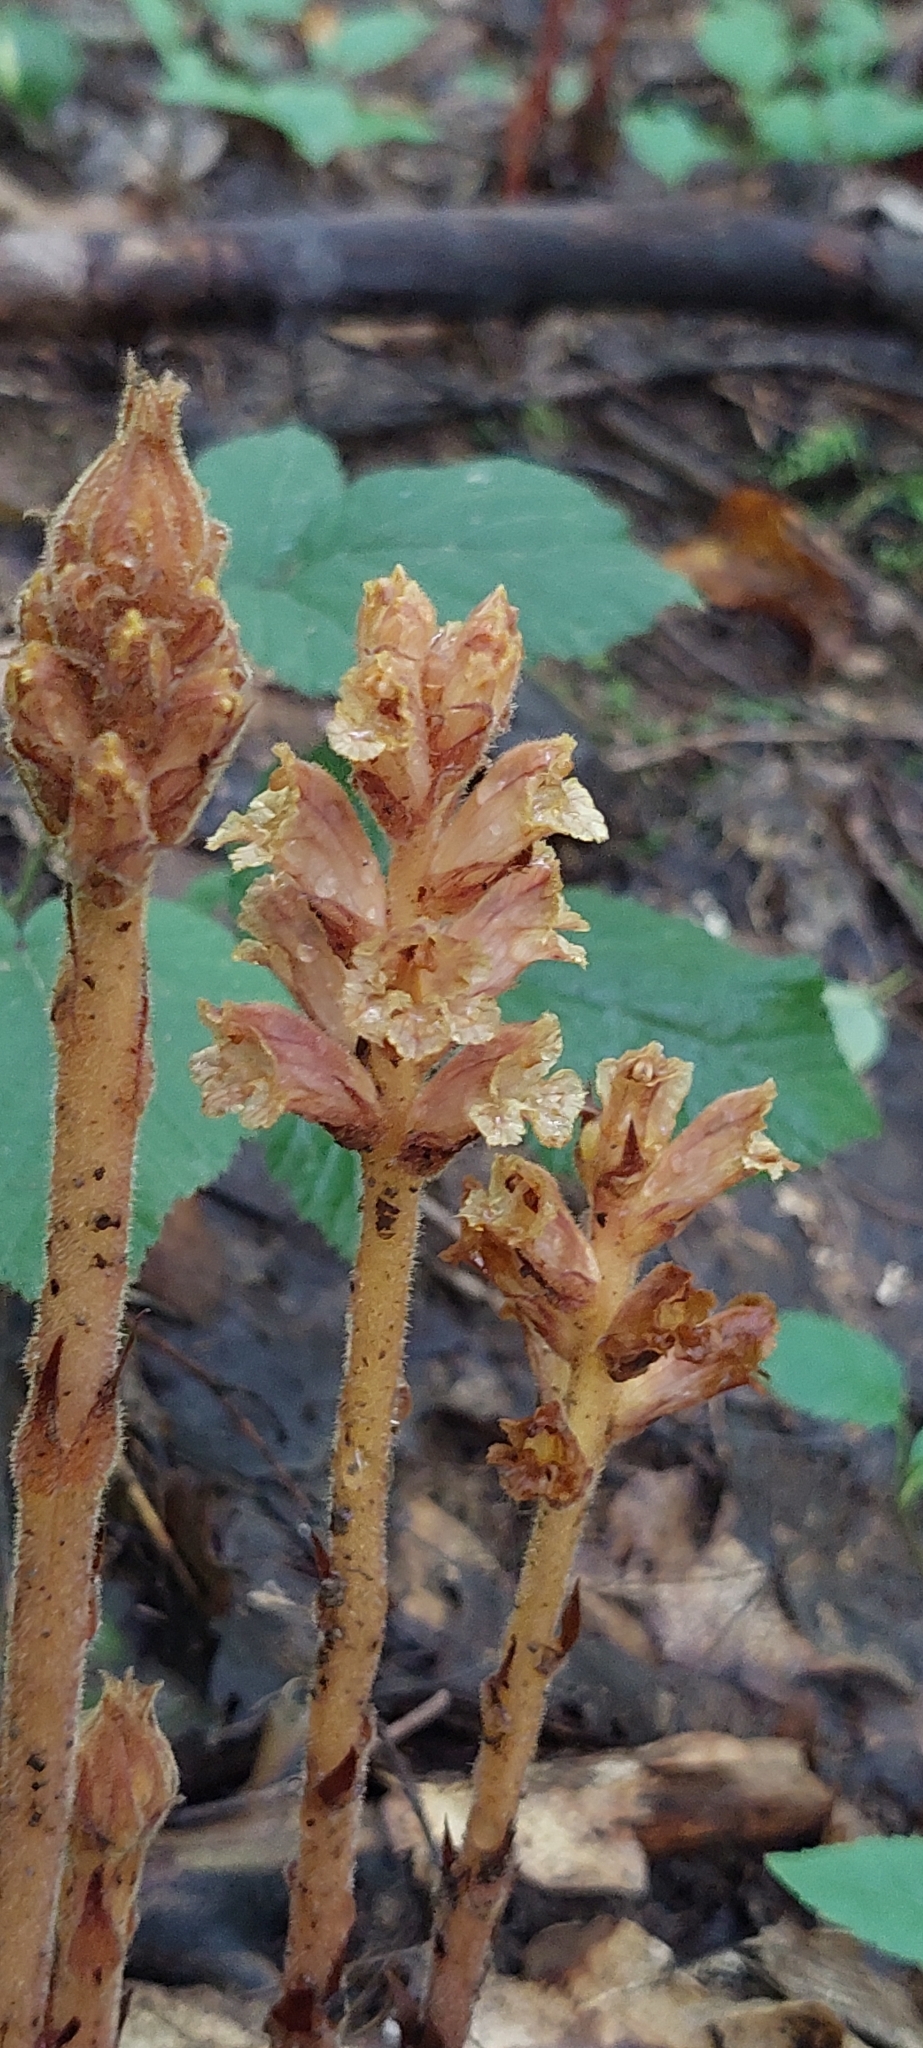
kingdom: Plantae
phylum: Tracheophyta
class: Magnoliopsida
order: Lamiales
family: Orobanchaceae
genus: Orobanche
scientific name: Orobanche laxissima
